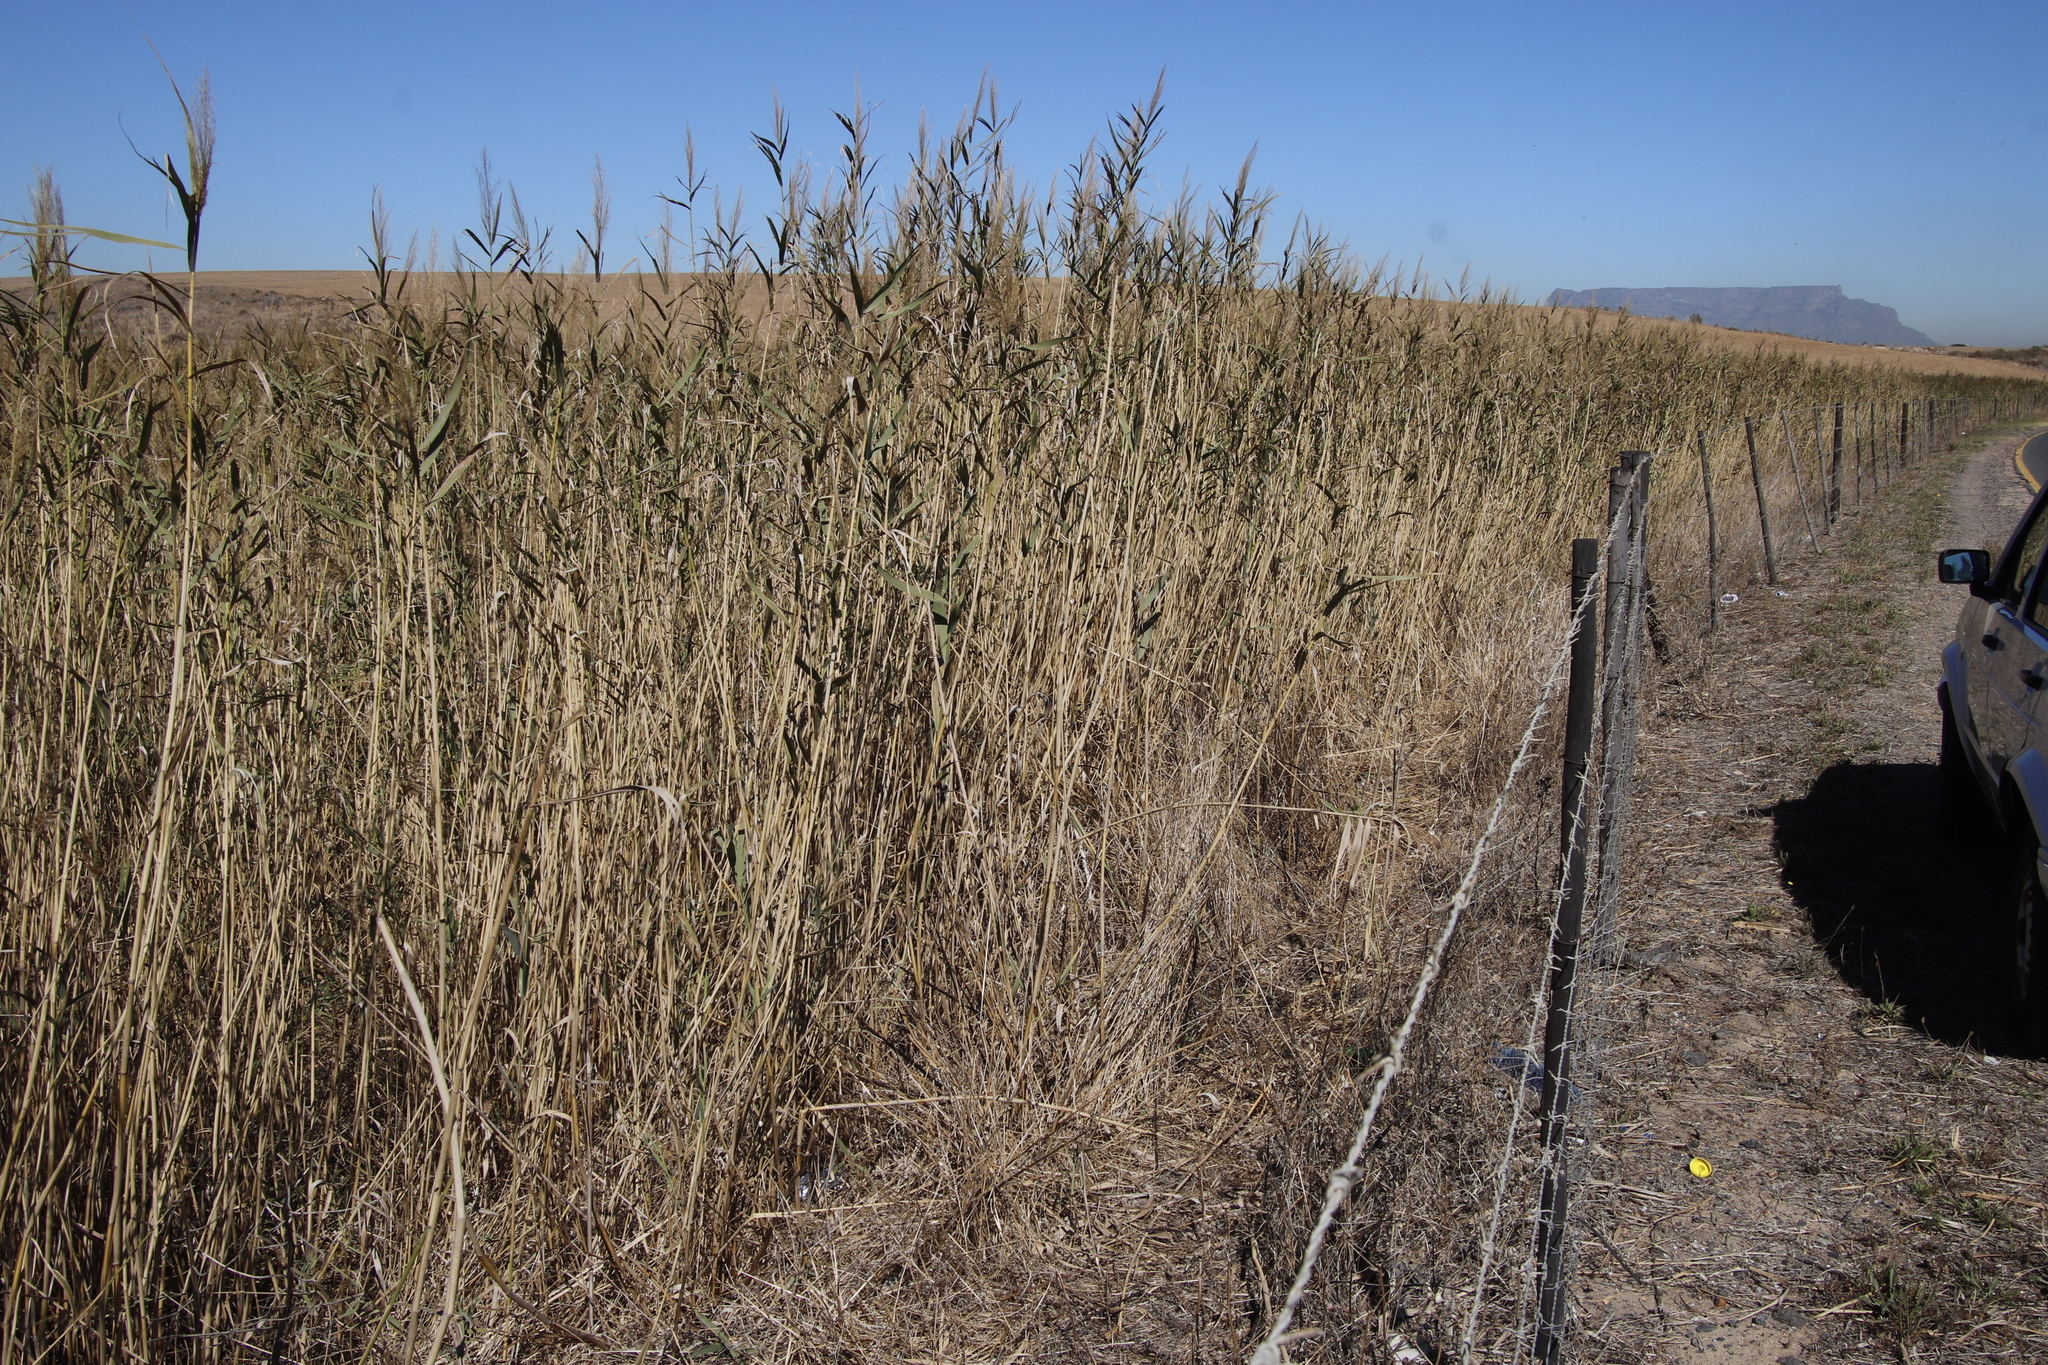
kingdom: Plantae
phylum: Tracheophyta
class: Liliopsida
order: Poales
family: Poaceae
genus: Phragmites
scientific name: Phragmites australis
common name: Common reed
